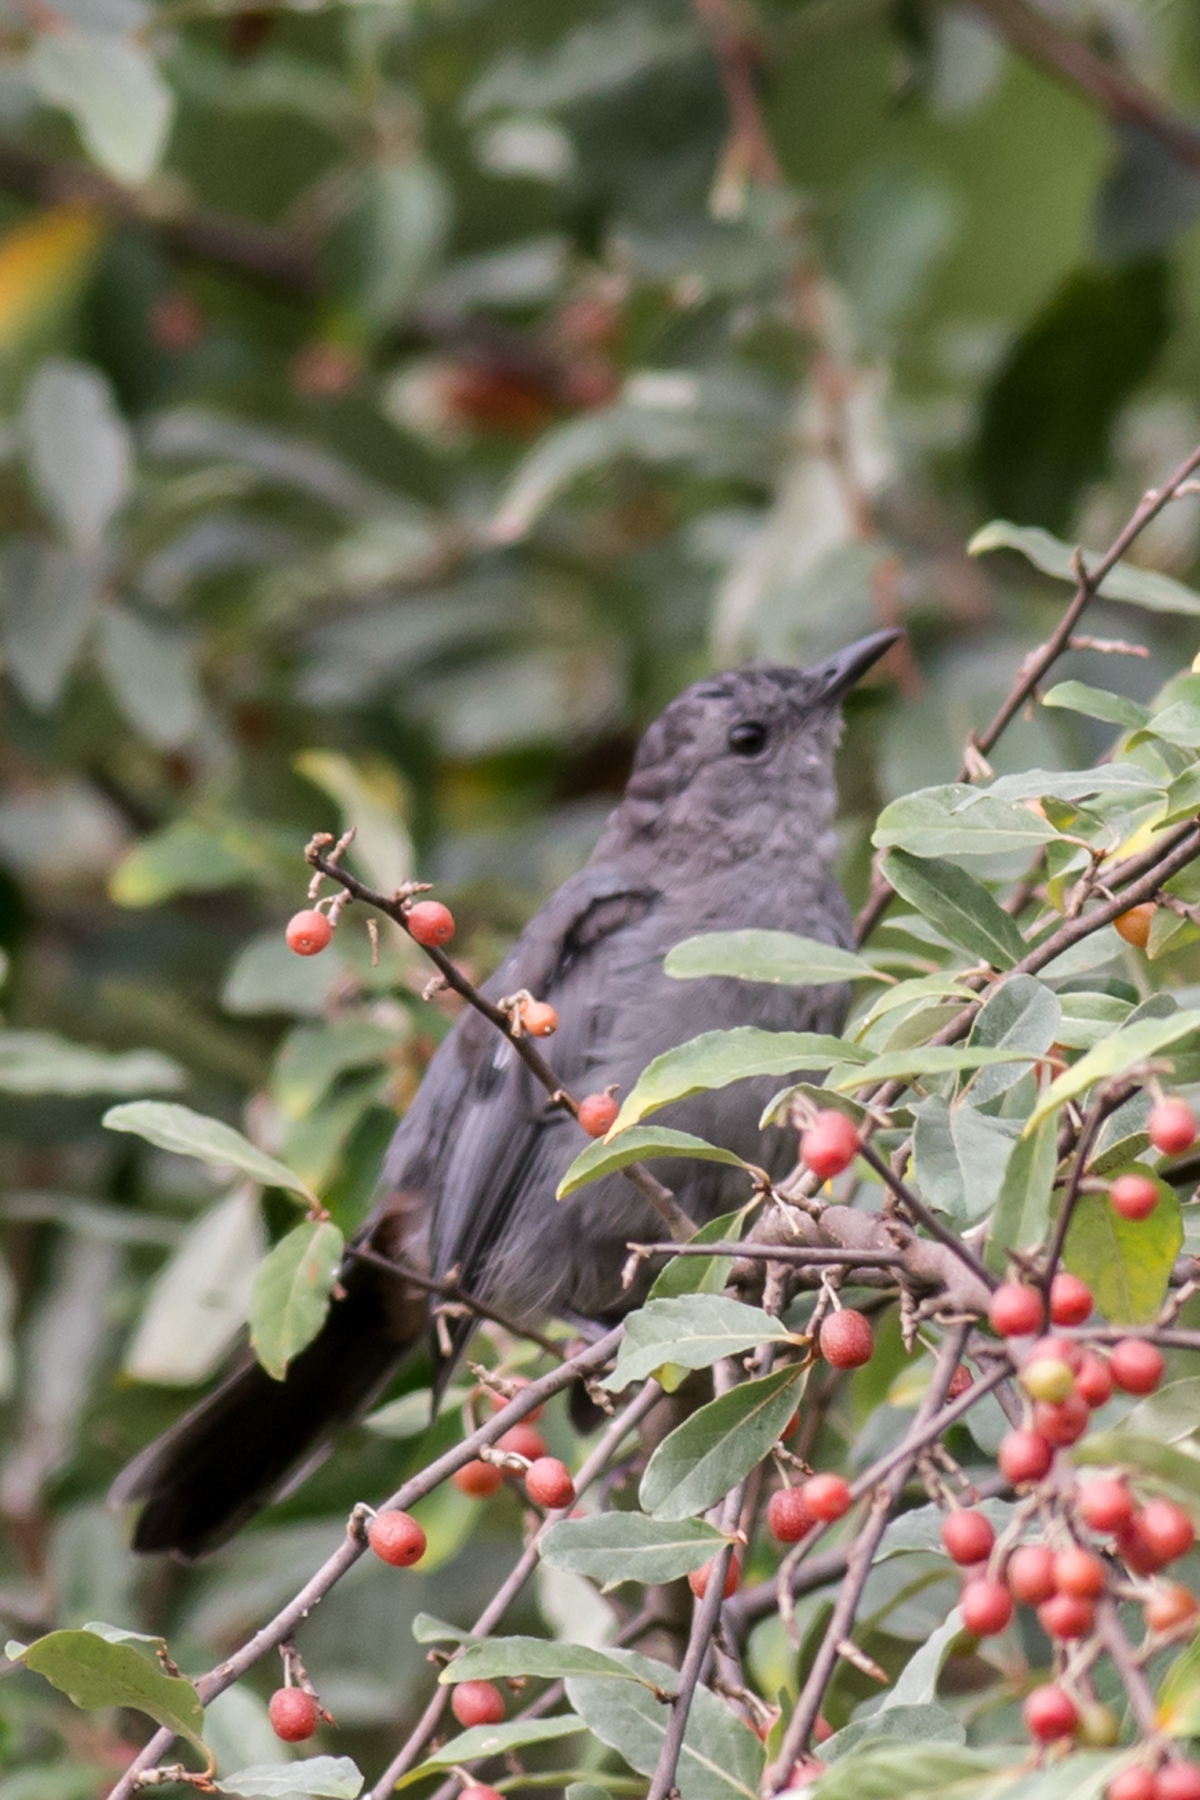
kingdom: Animalia
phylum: Chordata
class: Aves
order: Passeriformes
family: Mimidae
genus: Dumetella
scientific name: Dumetella carolinensis
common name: Gray catbird
